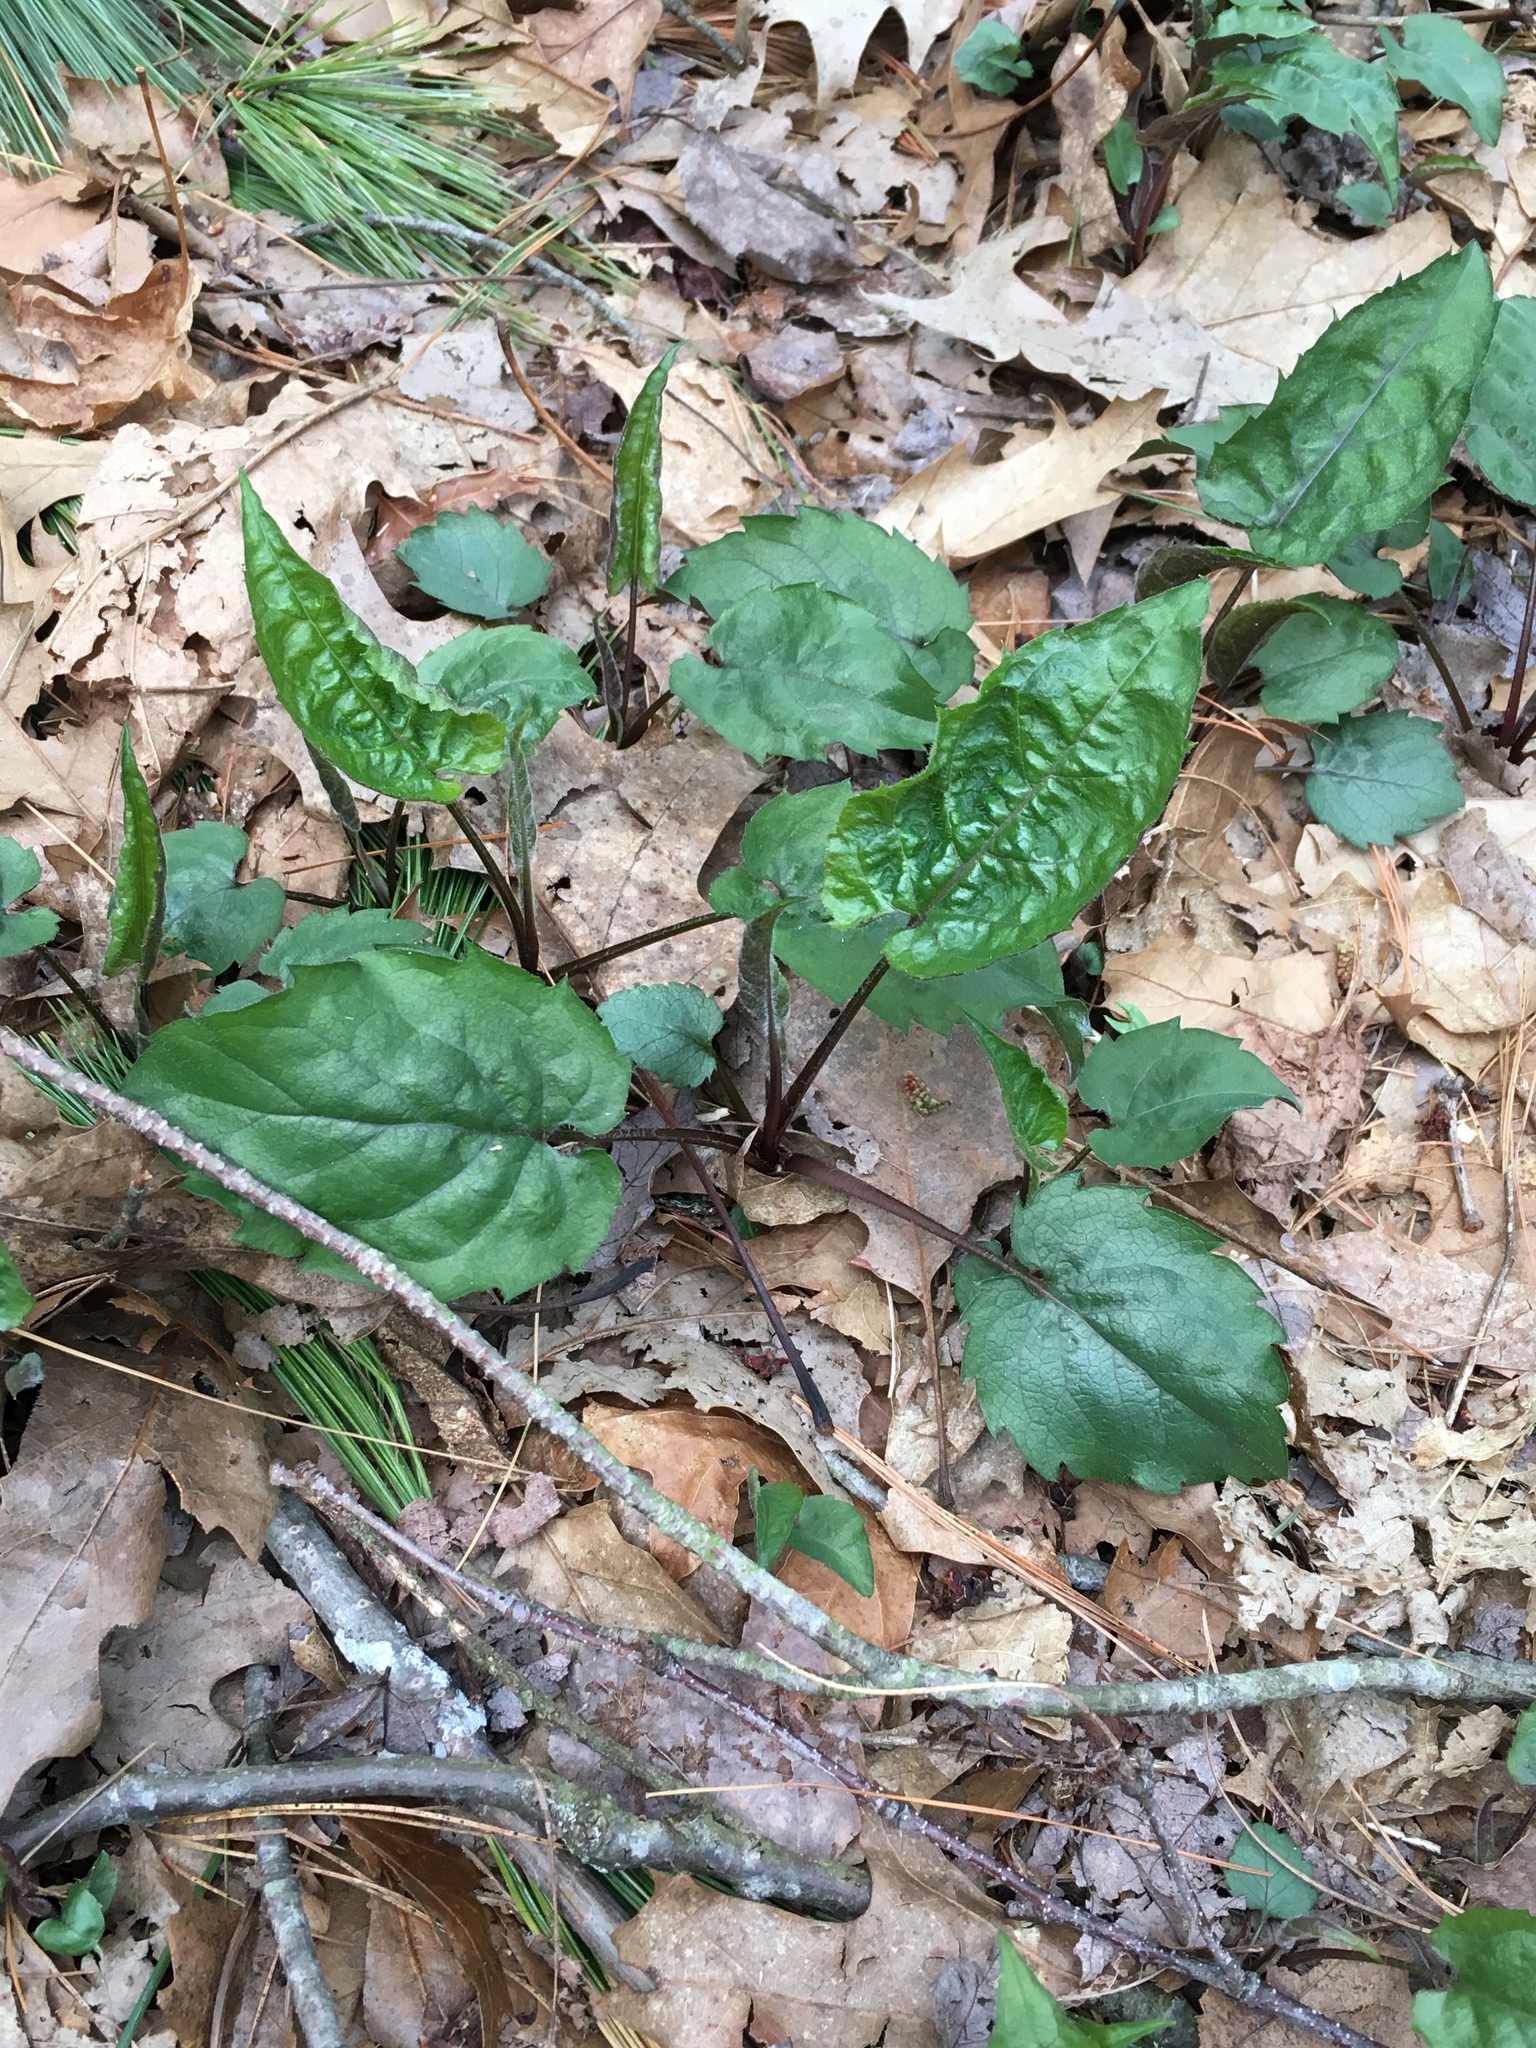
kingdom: Plantae
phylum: Tracheophyta
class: Magnoliopsida
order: Asterales
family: Asteraceae
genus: Eurybia
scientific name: Eurybia divaricata
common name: White wood aster
